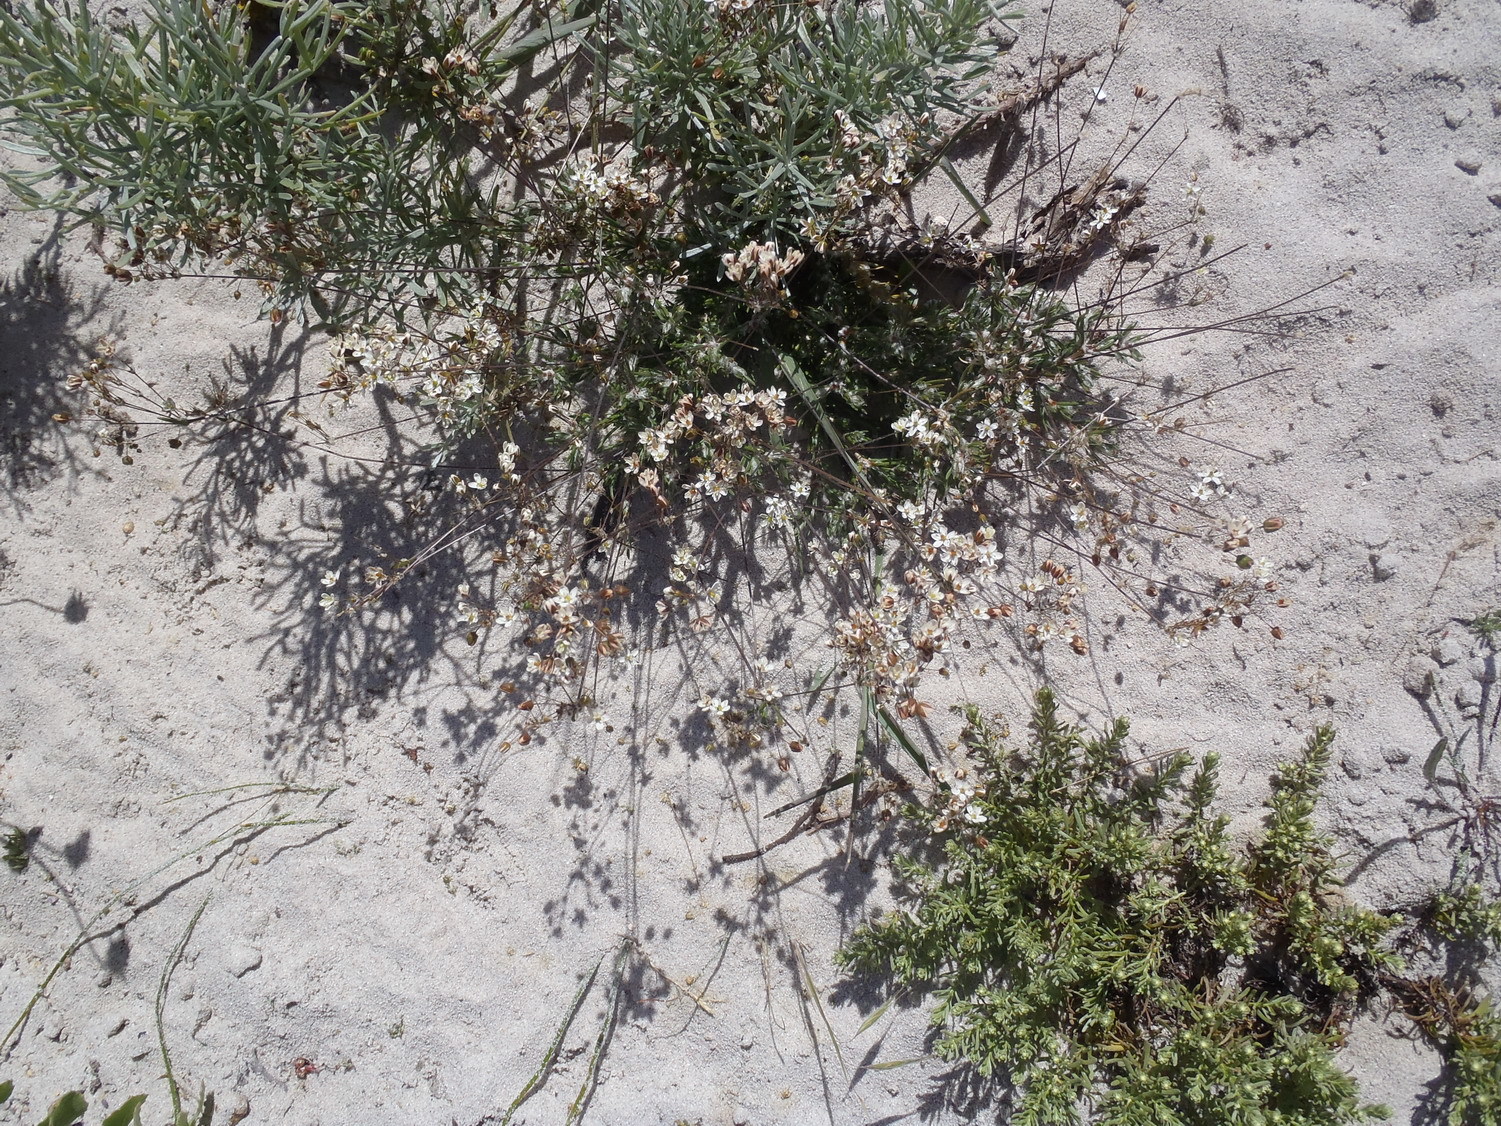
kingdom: Plantae
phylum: Tracheophyta
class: Magnoliopsida
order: Caryophyllales
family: Molluginaceae
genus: Pharnaceum
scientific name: Pharnaceum lanatum
